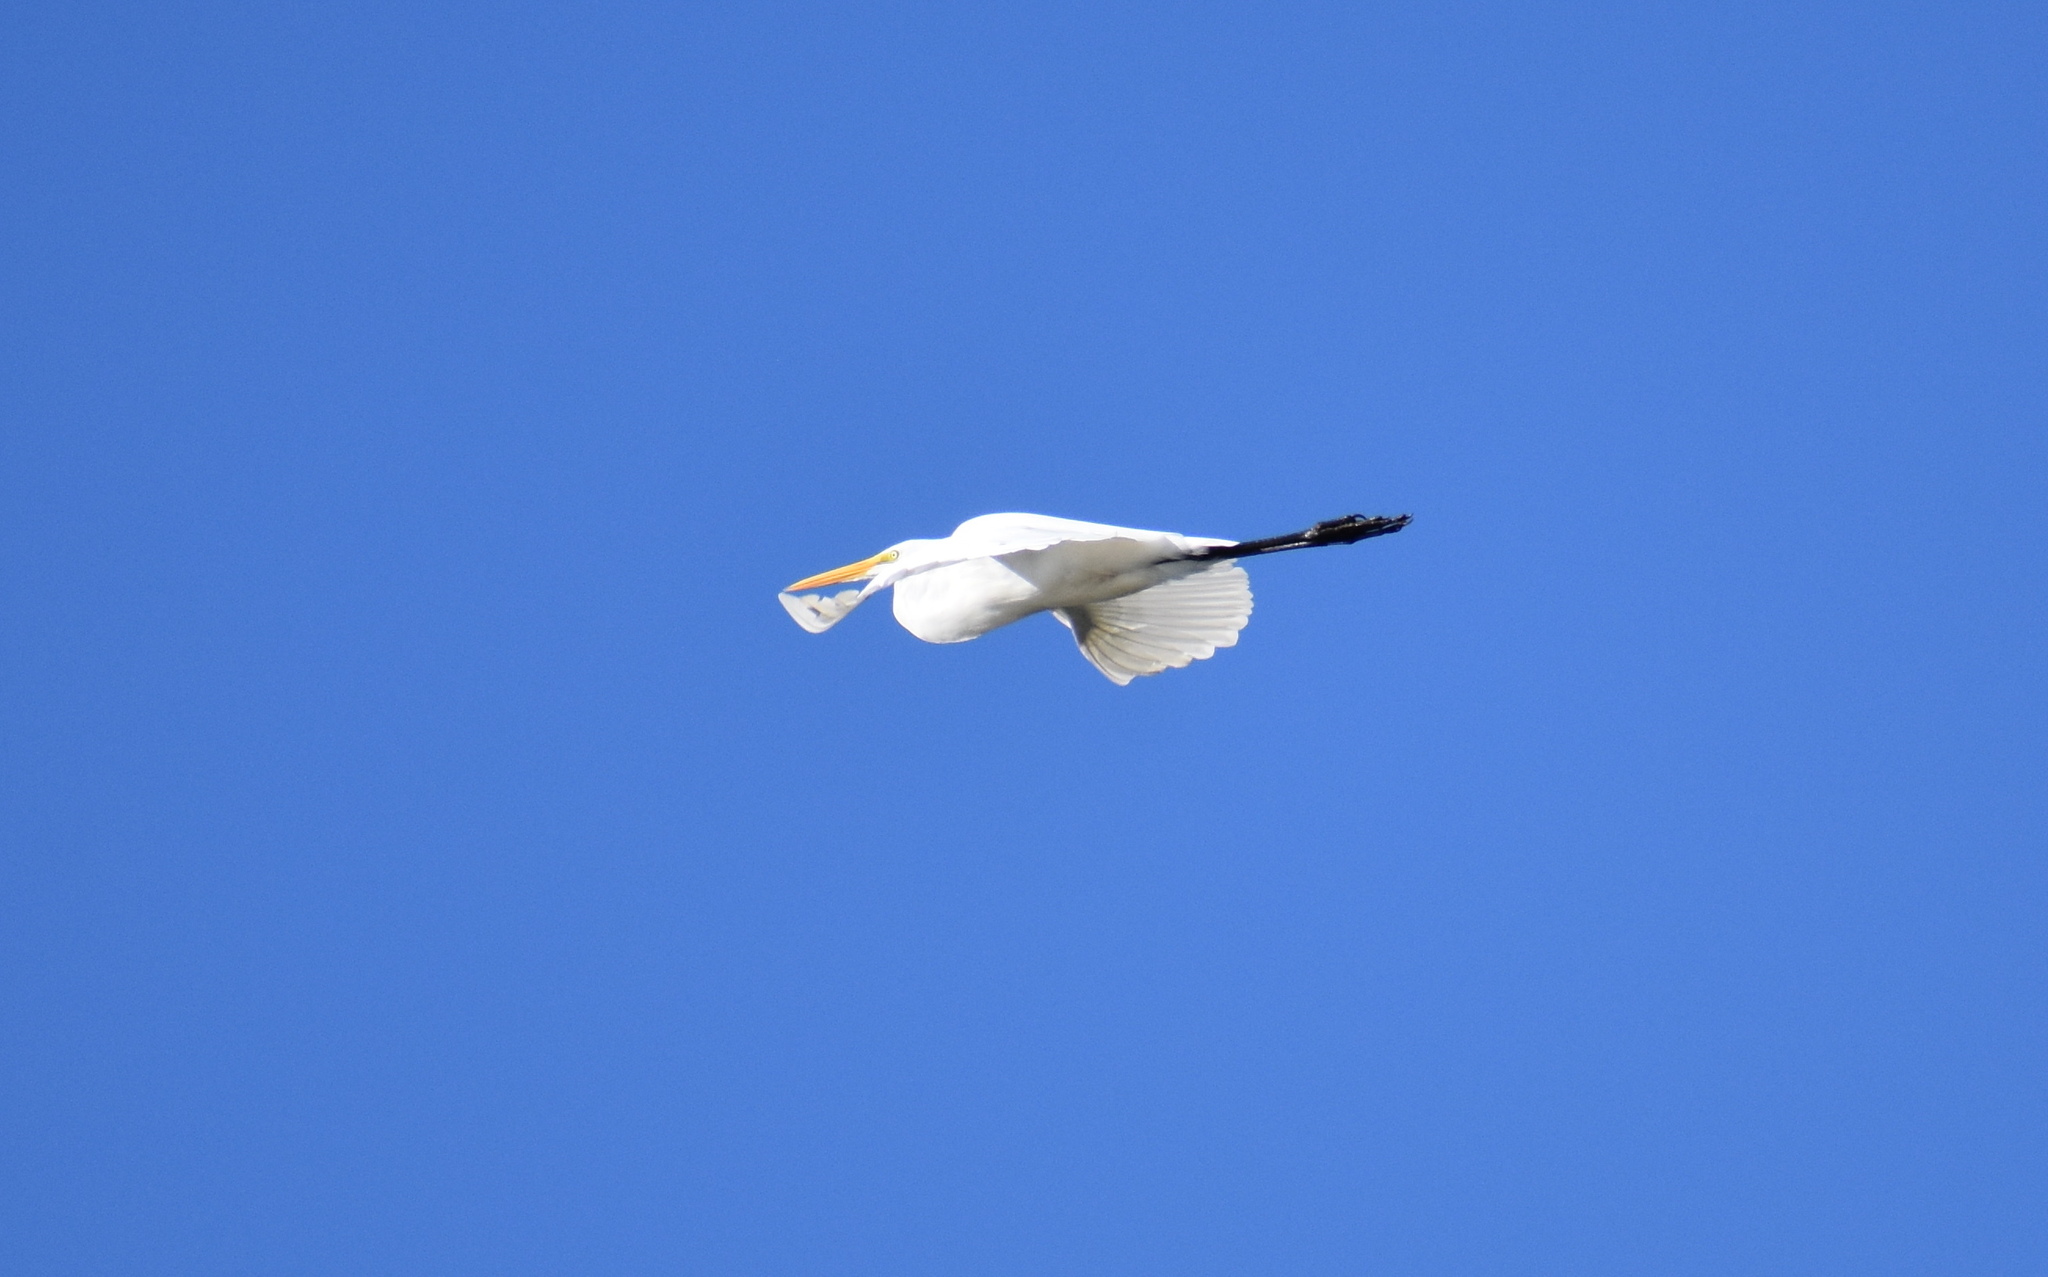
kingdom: Animalia
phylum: Chordata
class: Aves
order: Pelecaniformes
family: Ardeidae
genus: Ardea
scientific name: Ardea alba
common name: Great egret
